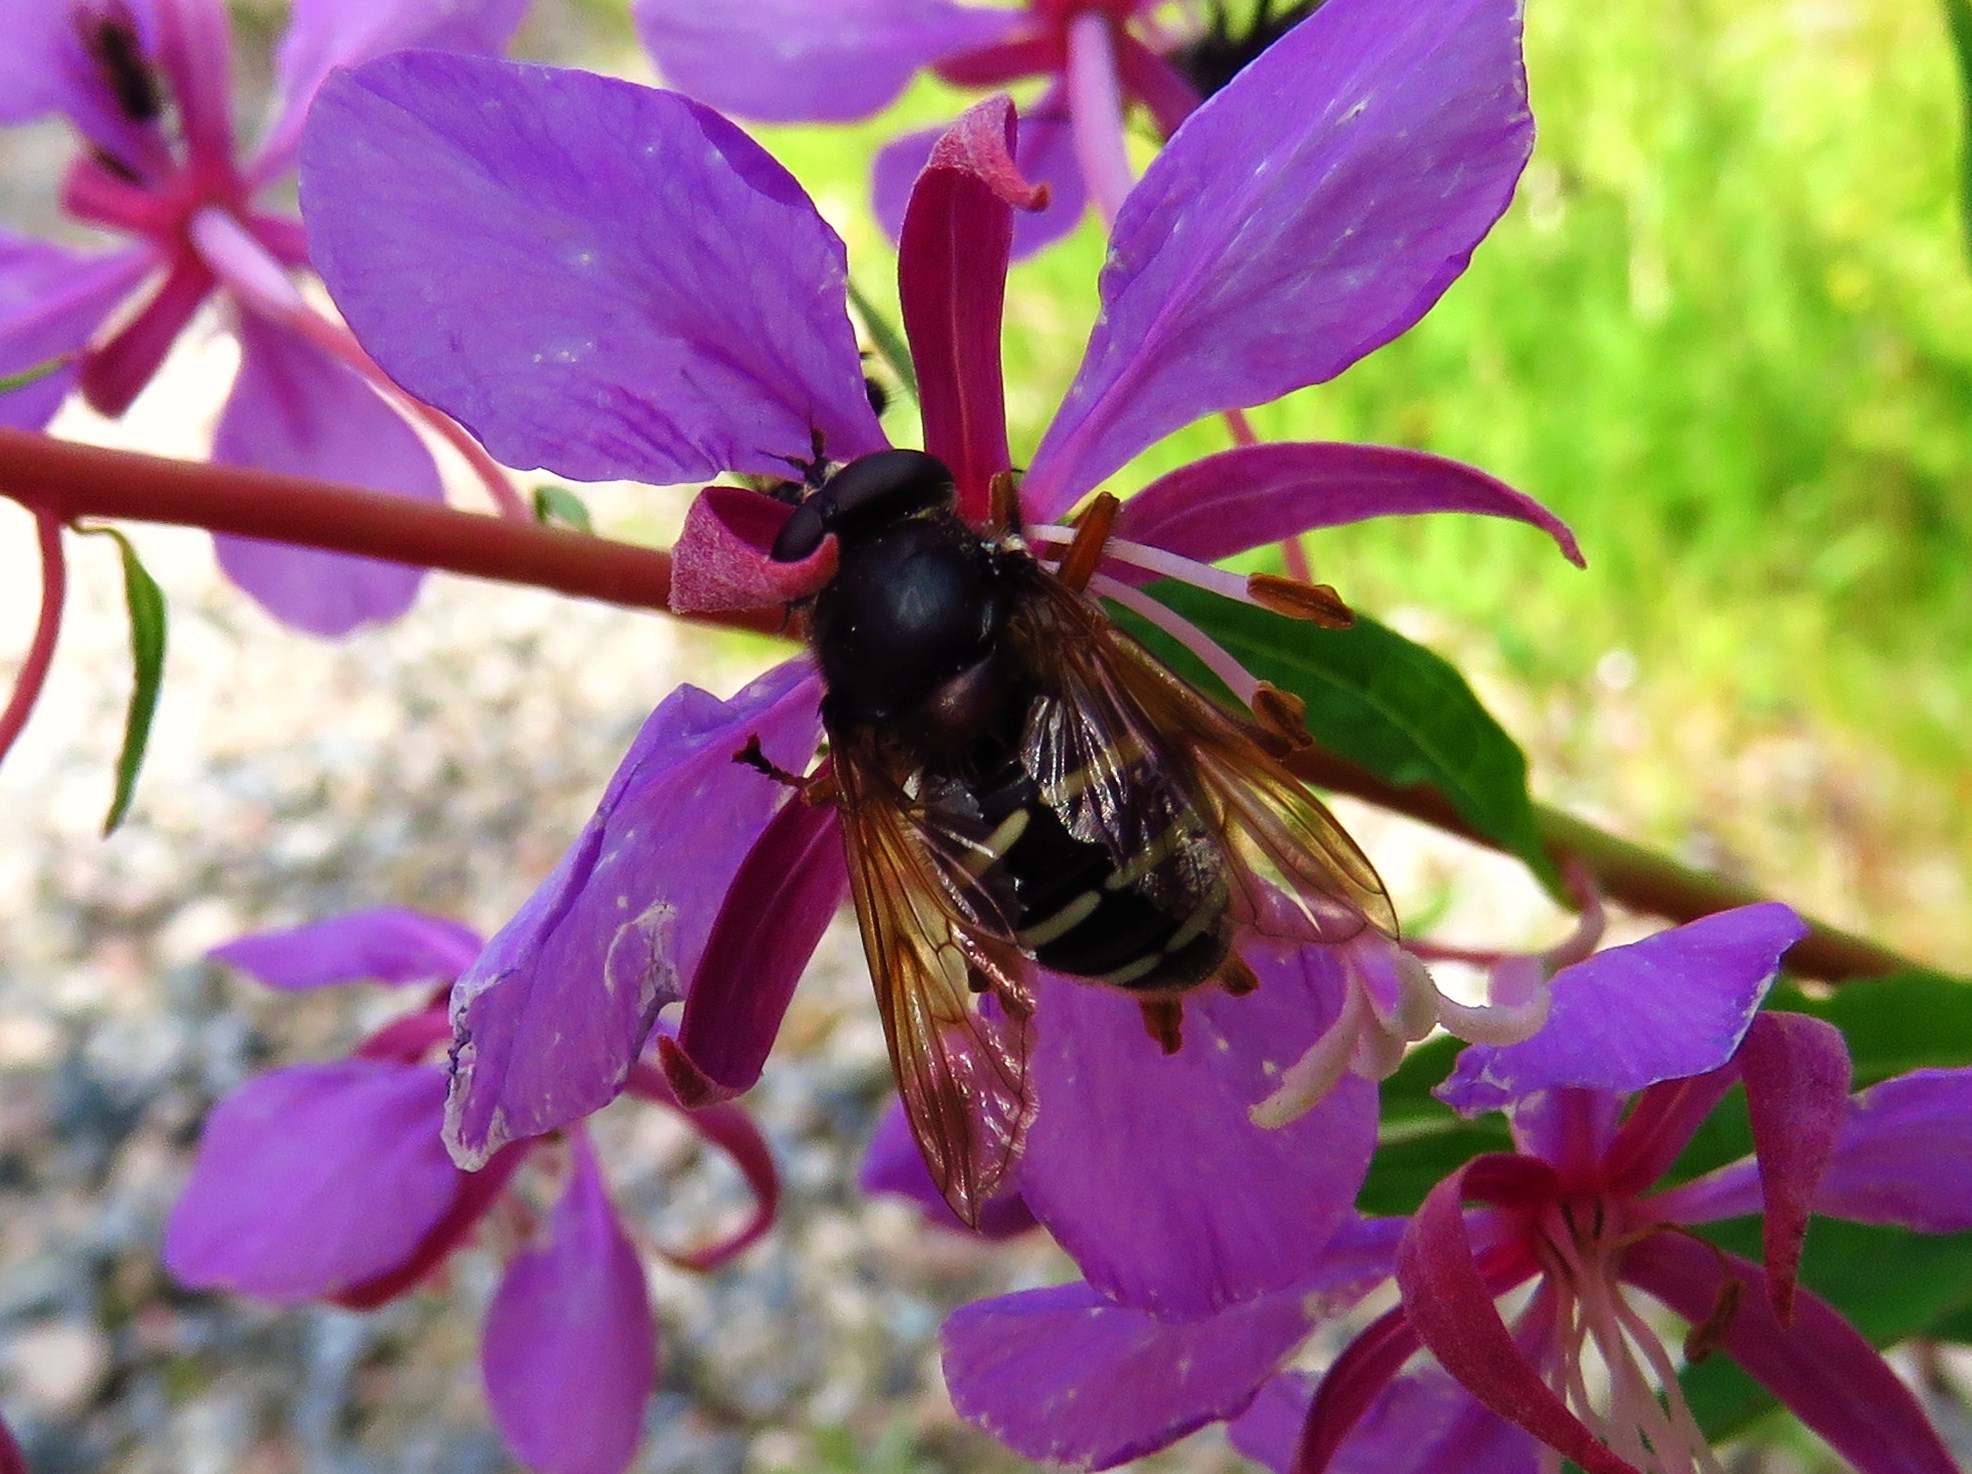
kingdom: Animalia
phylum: Arthropoda
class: Insecta
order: Diptera
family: Syrphidae
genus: Sericomyia
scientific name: Sericomyia lappona
